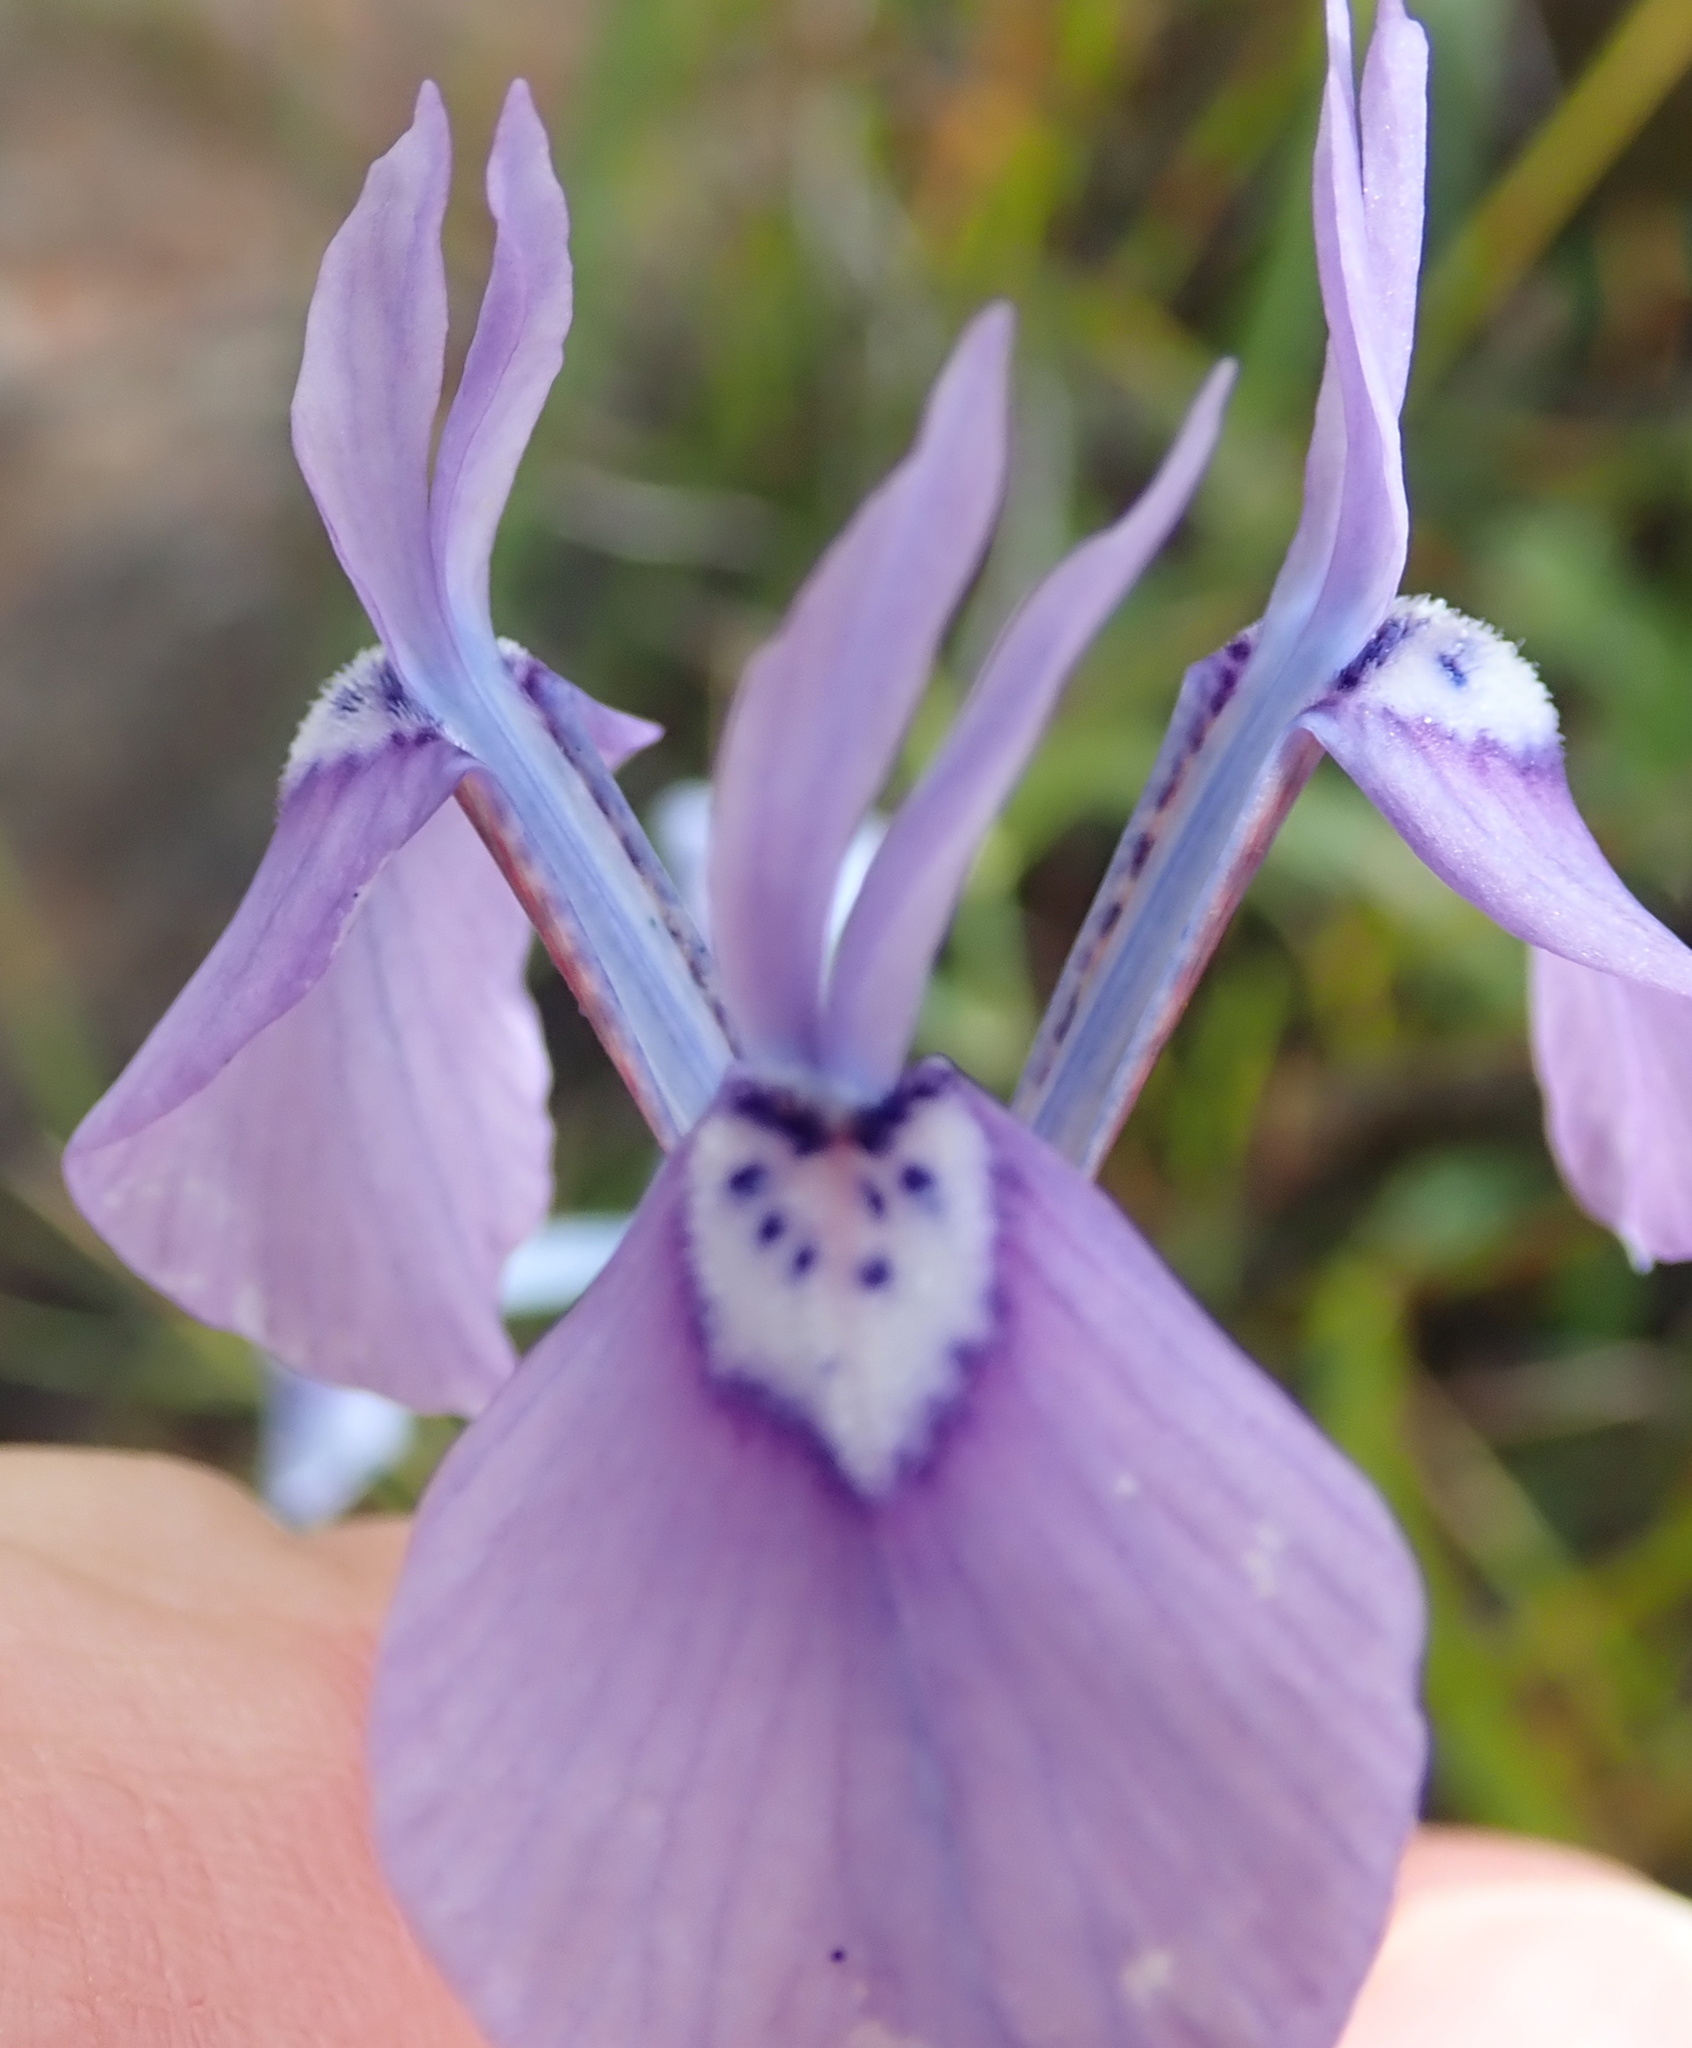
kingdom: Plantae
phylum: Tracheophyta
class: Liliopsida
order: Asparagales
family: Iridaceae
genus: Moraea
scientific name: Moraea tripetala
